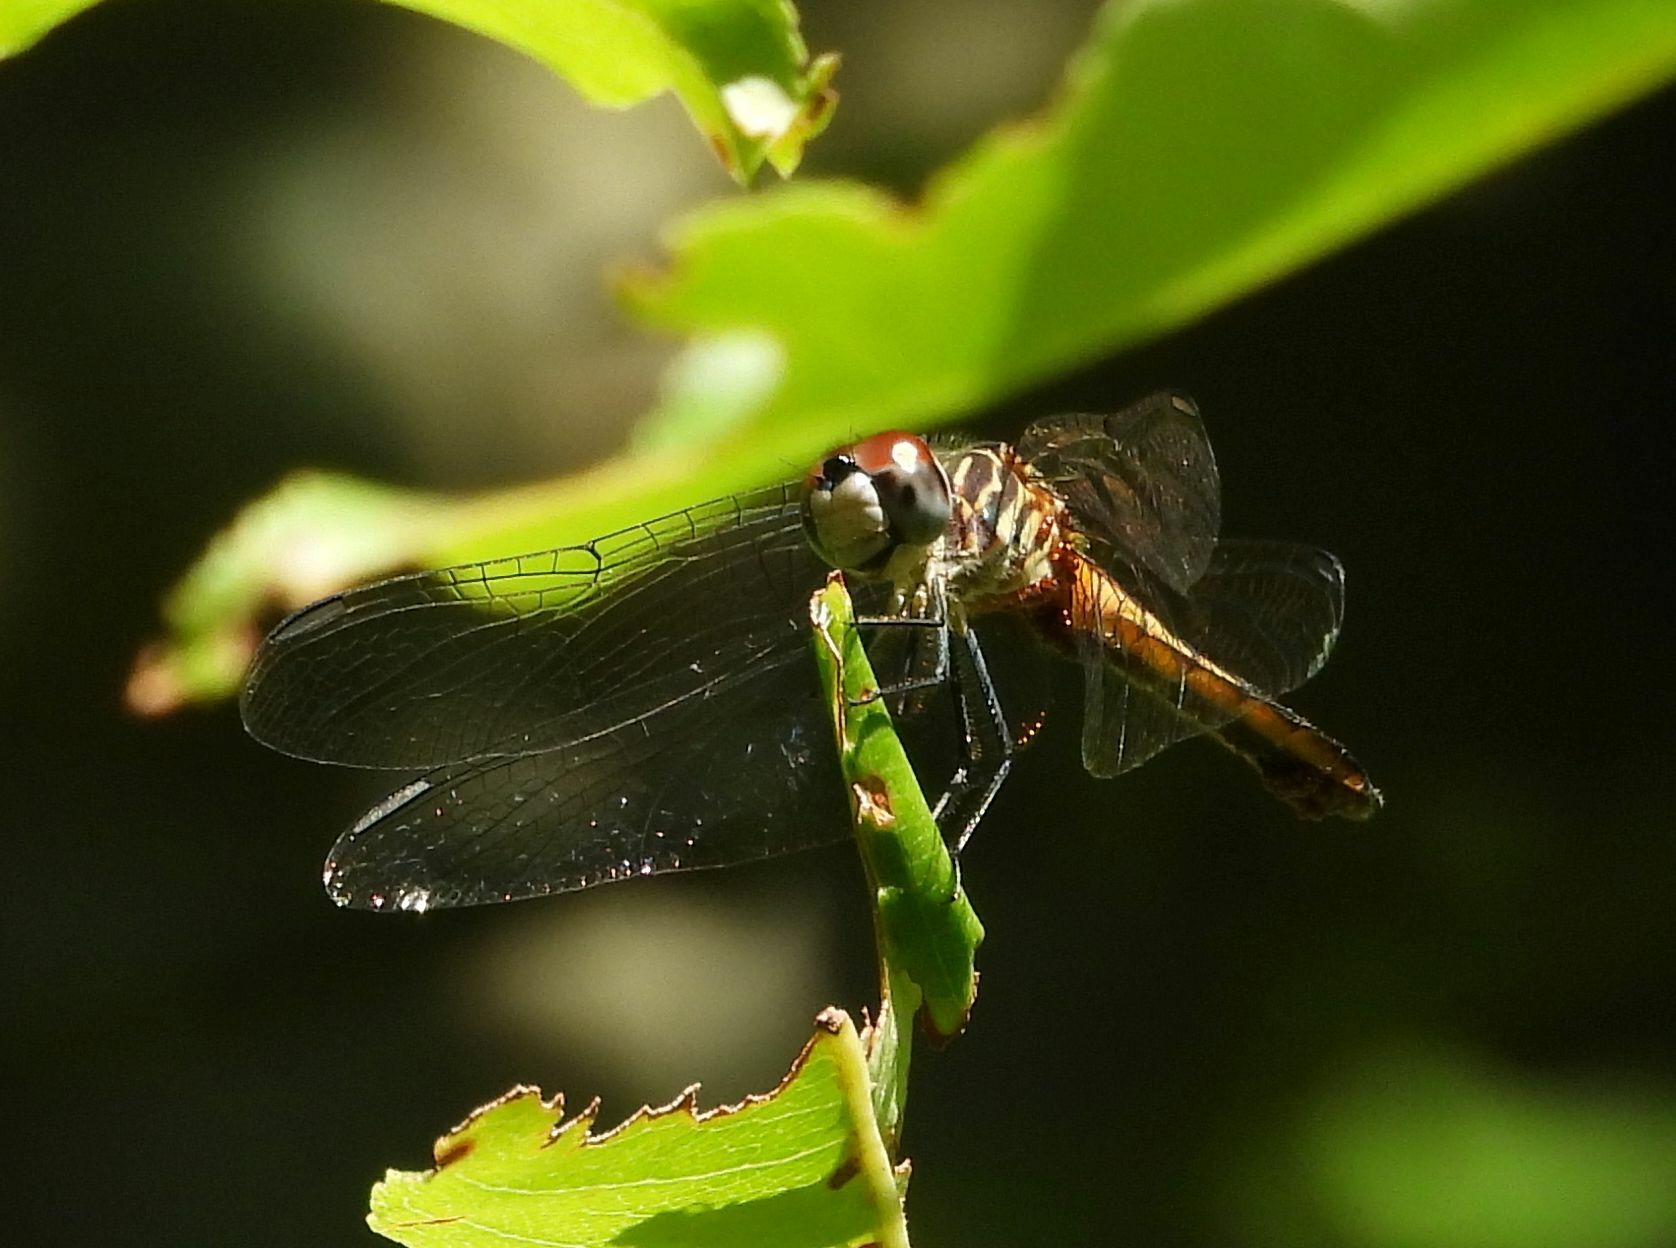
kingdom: Animalia
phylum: Arthropoda
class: Insecta
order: Odonata
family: Libellulidae
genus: Pachydiplax
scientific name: Pachydiplax longipennis
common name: Blue dasher
